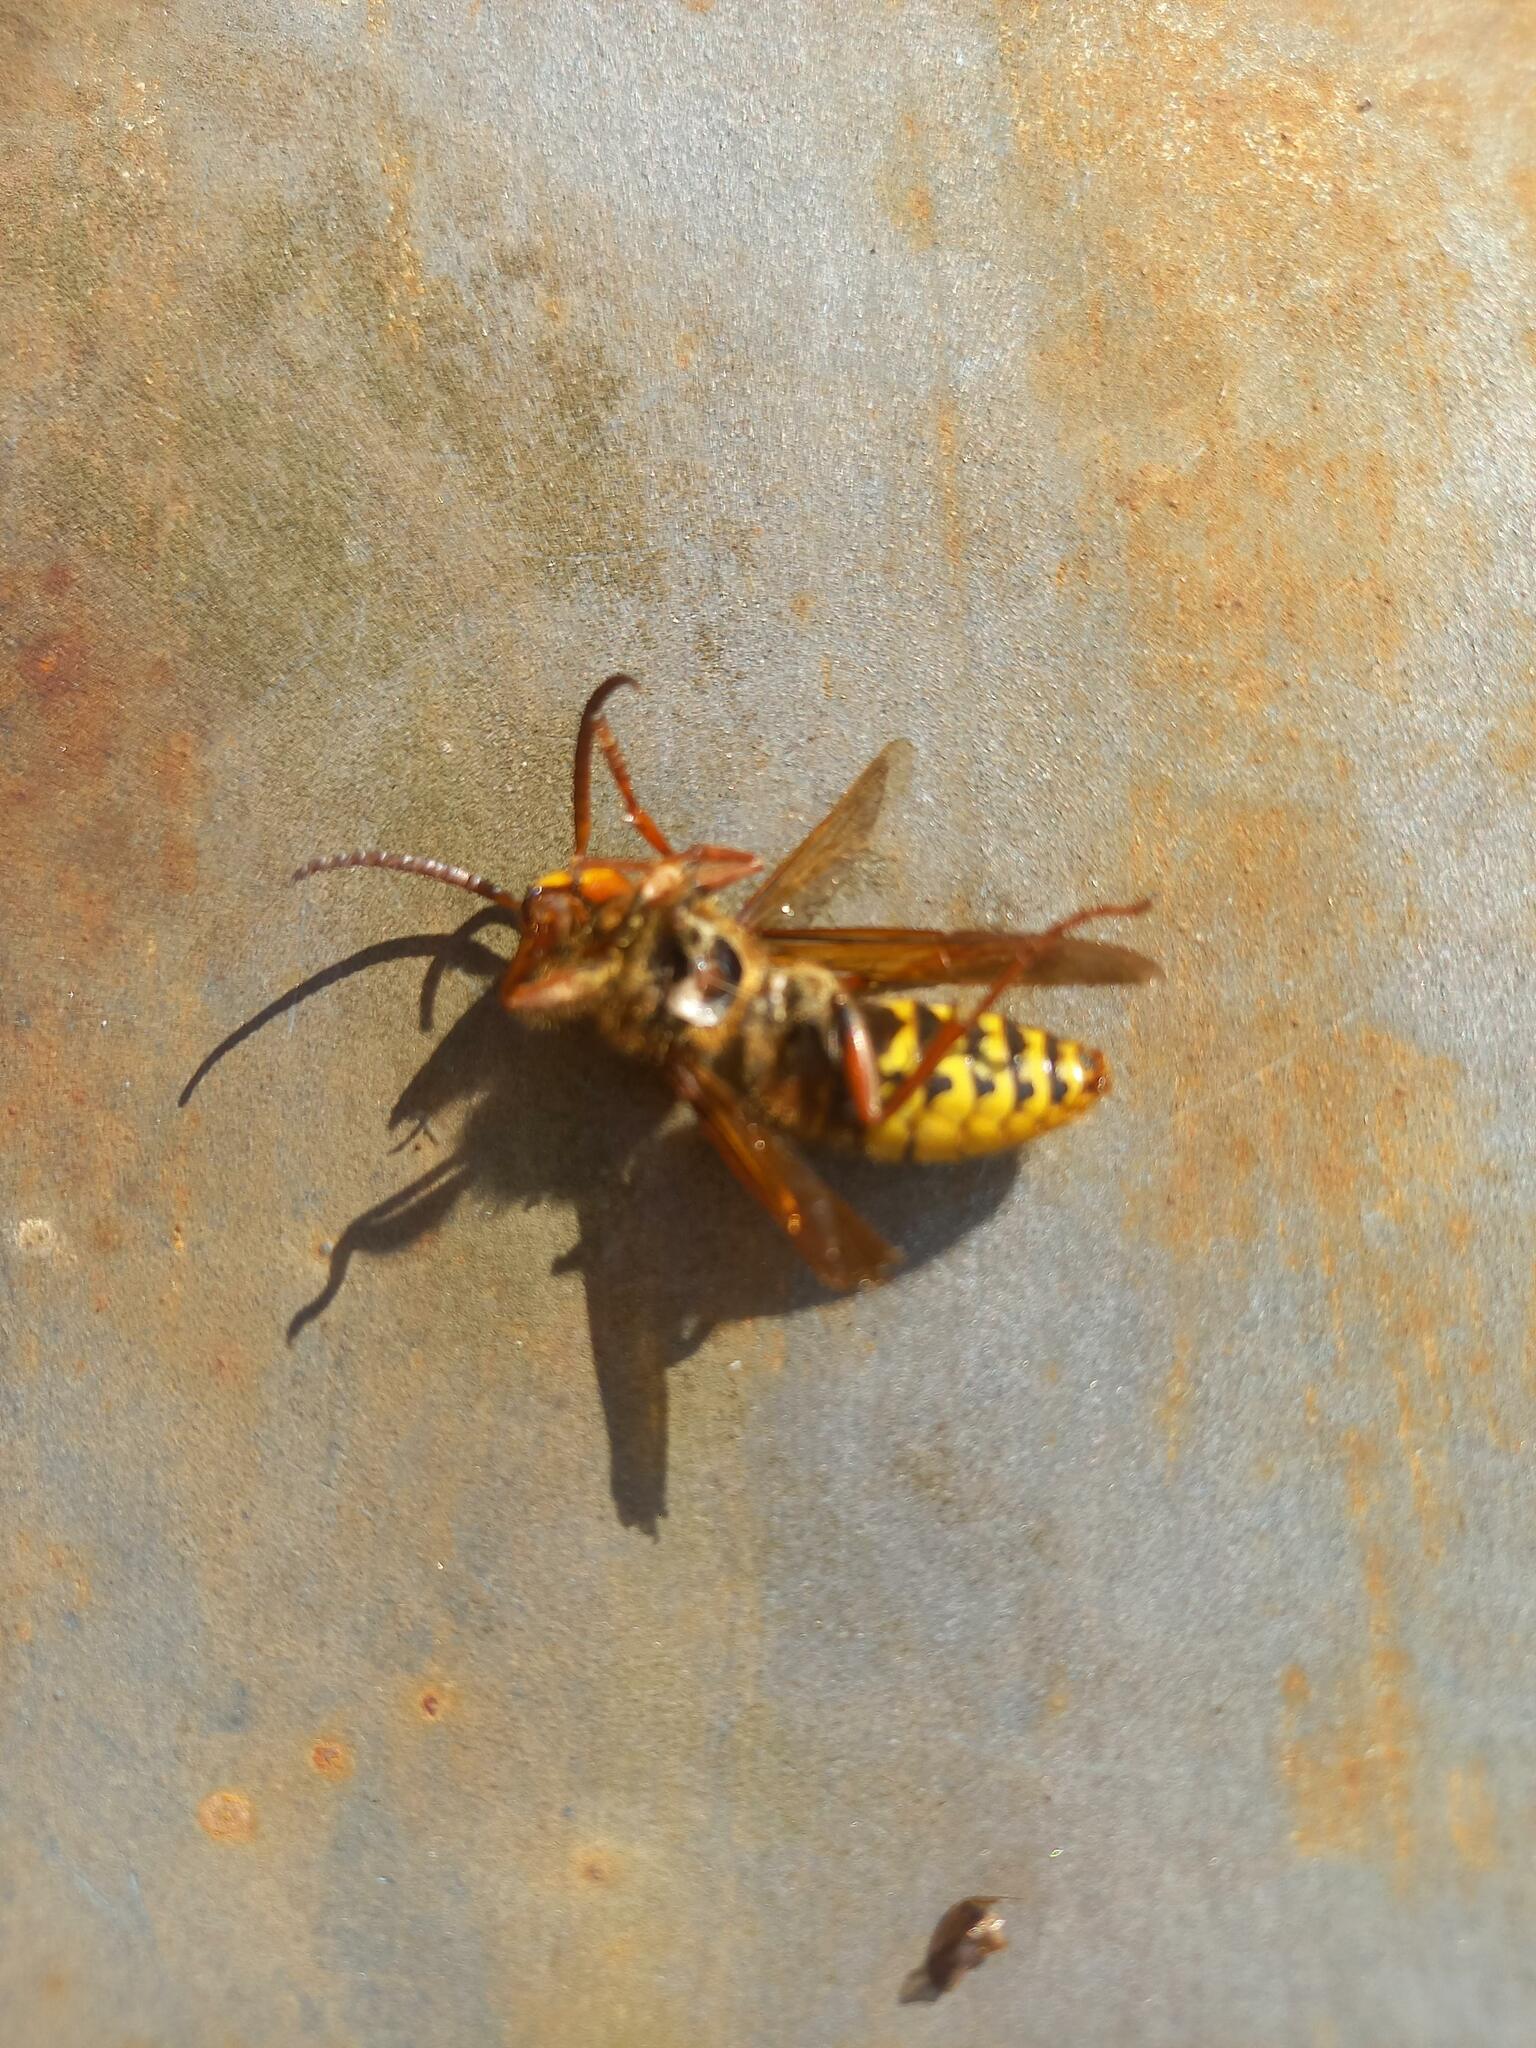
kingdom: Animalia
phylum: Arthropoda
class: Insecta
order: Hymenoptera
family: Vespidae
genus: Vespa
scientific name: Vespa crabro
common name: Hornet
